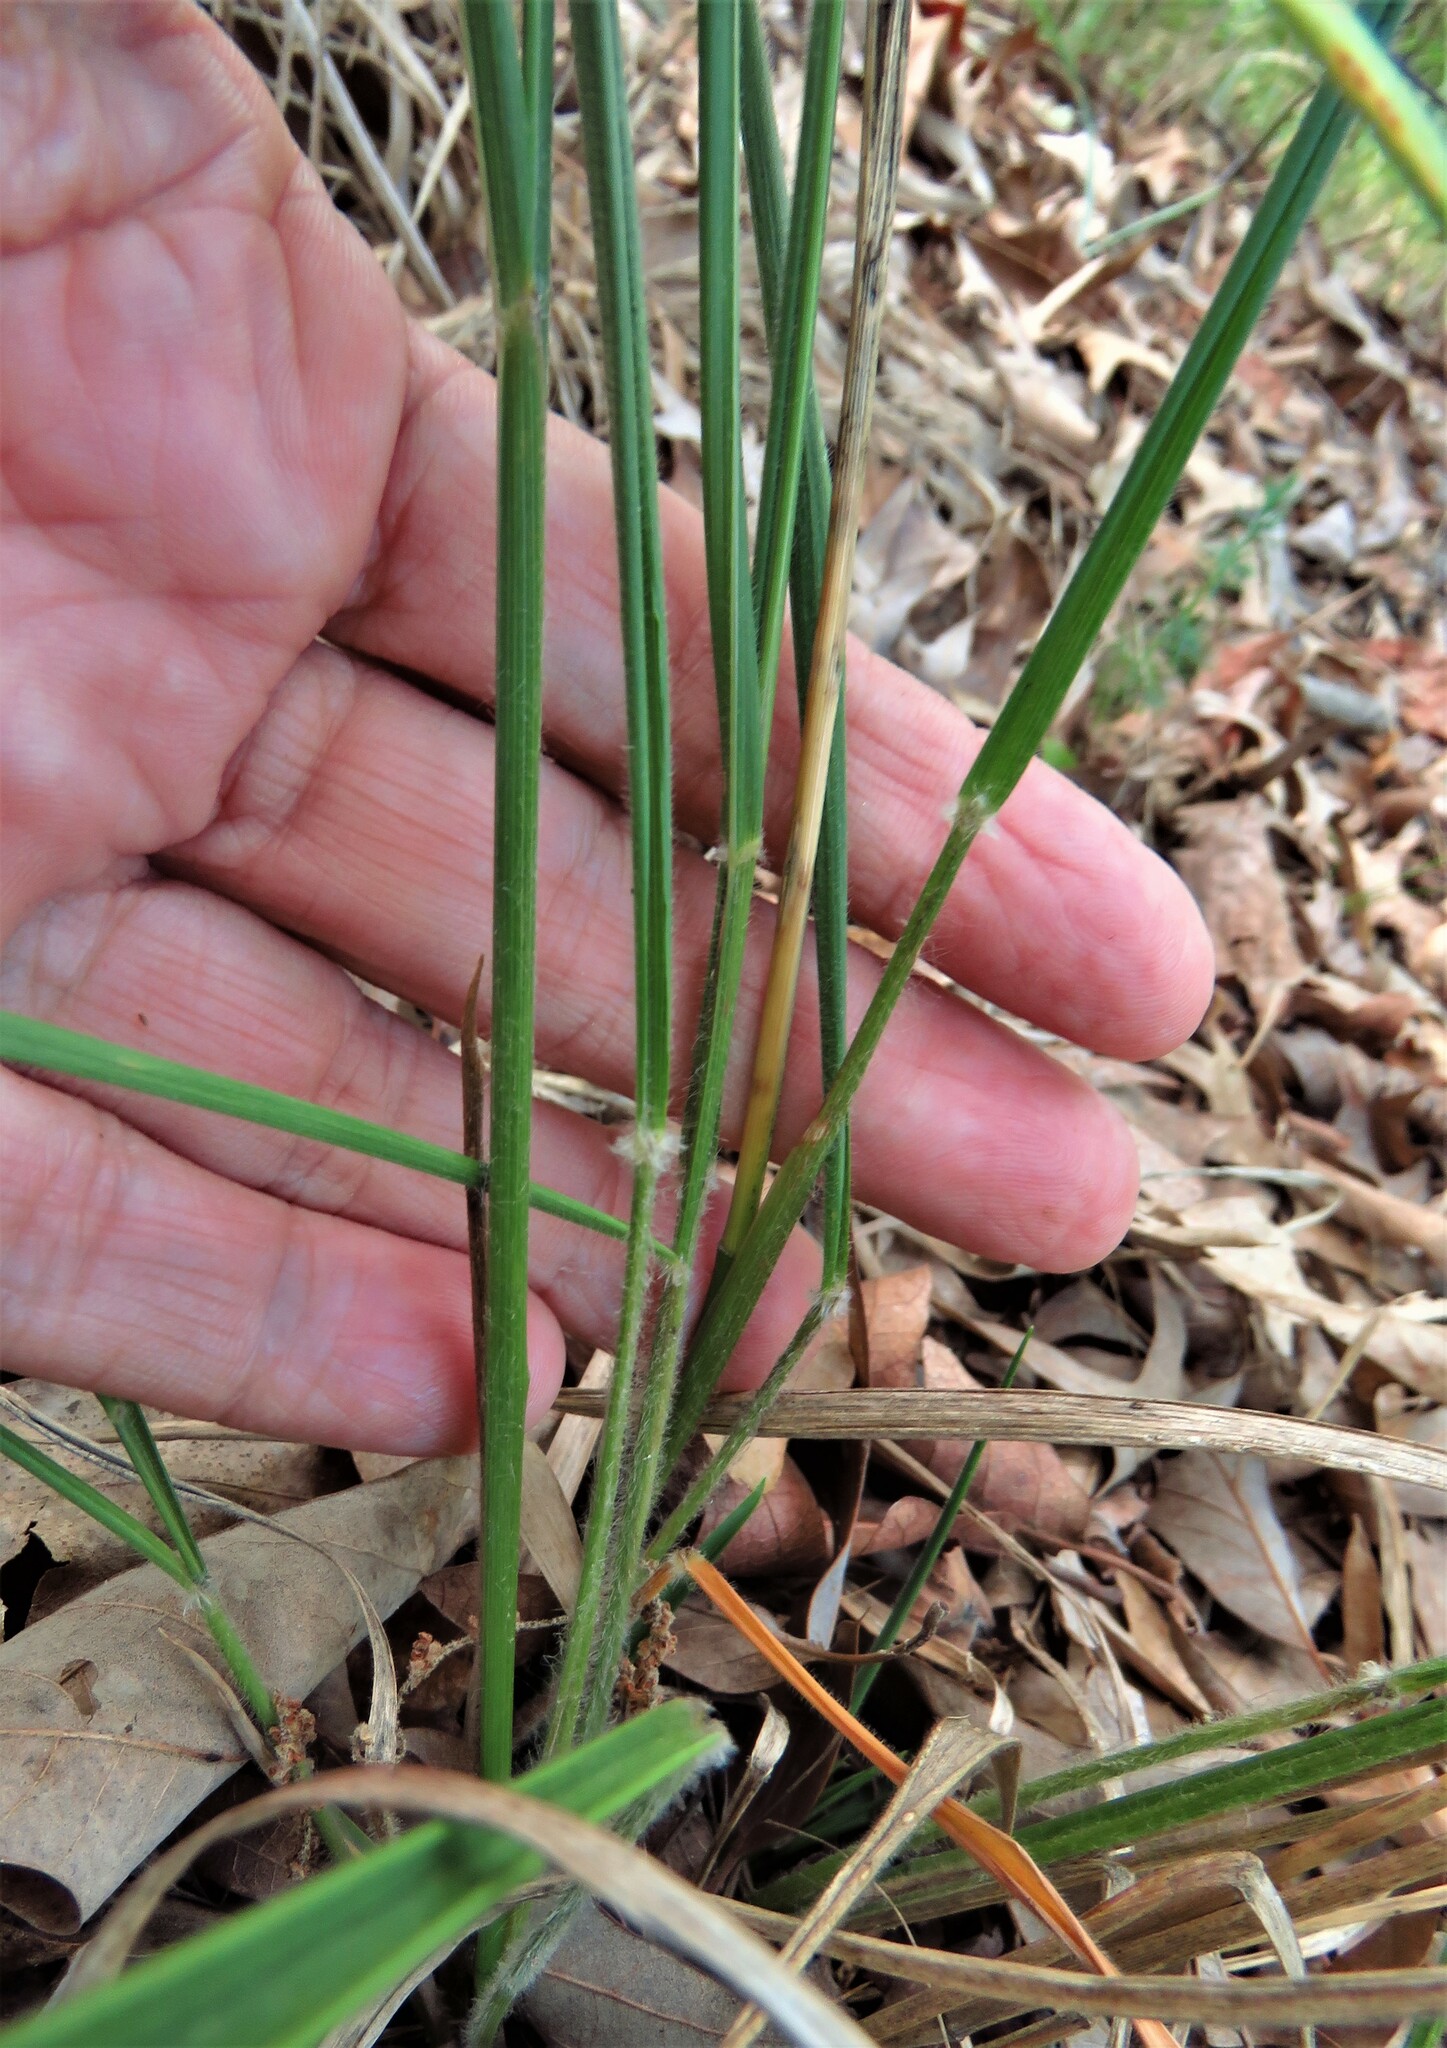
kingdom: Plantae
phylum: Tracheophyta
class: Liliopsida
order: Poales
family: Poaceae
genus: Chasmanthium
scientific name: Chasmanthium laxum
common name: Slender chasmanthium
